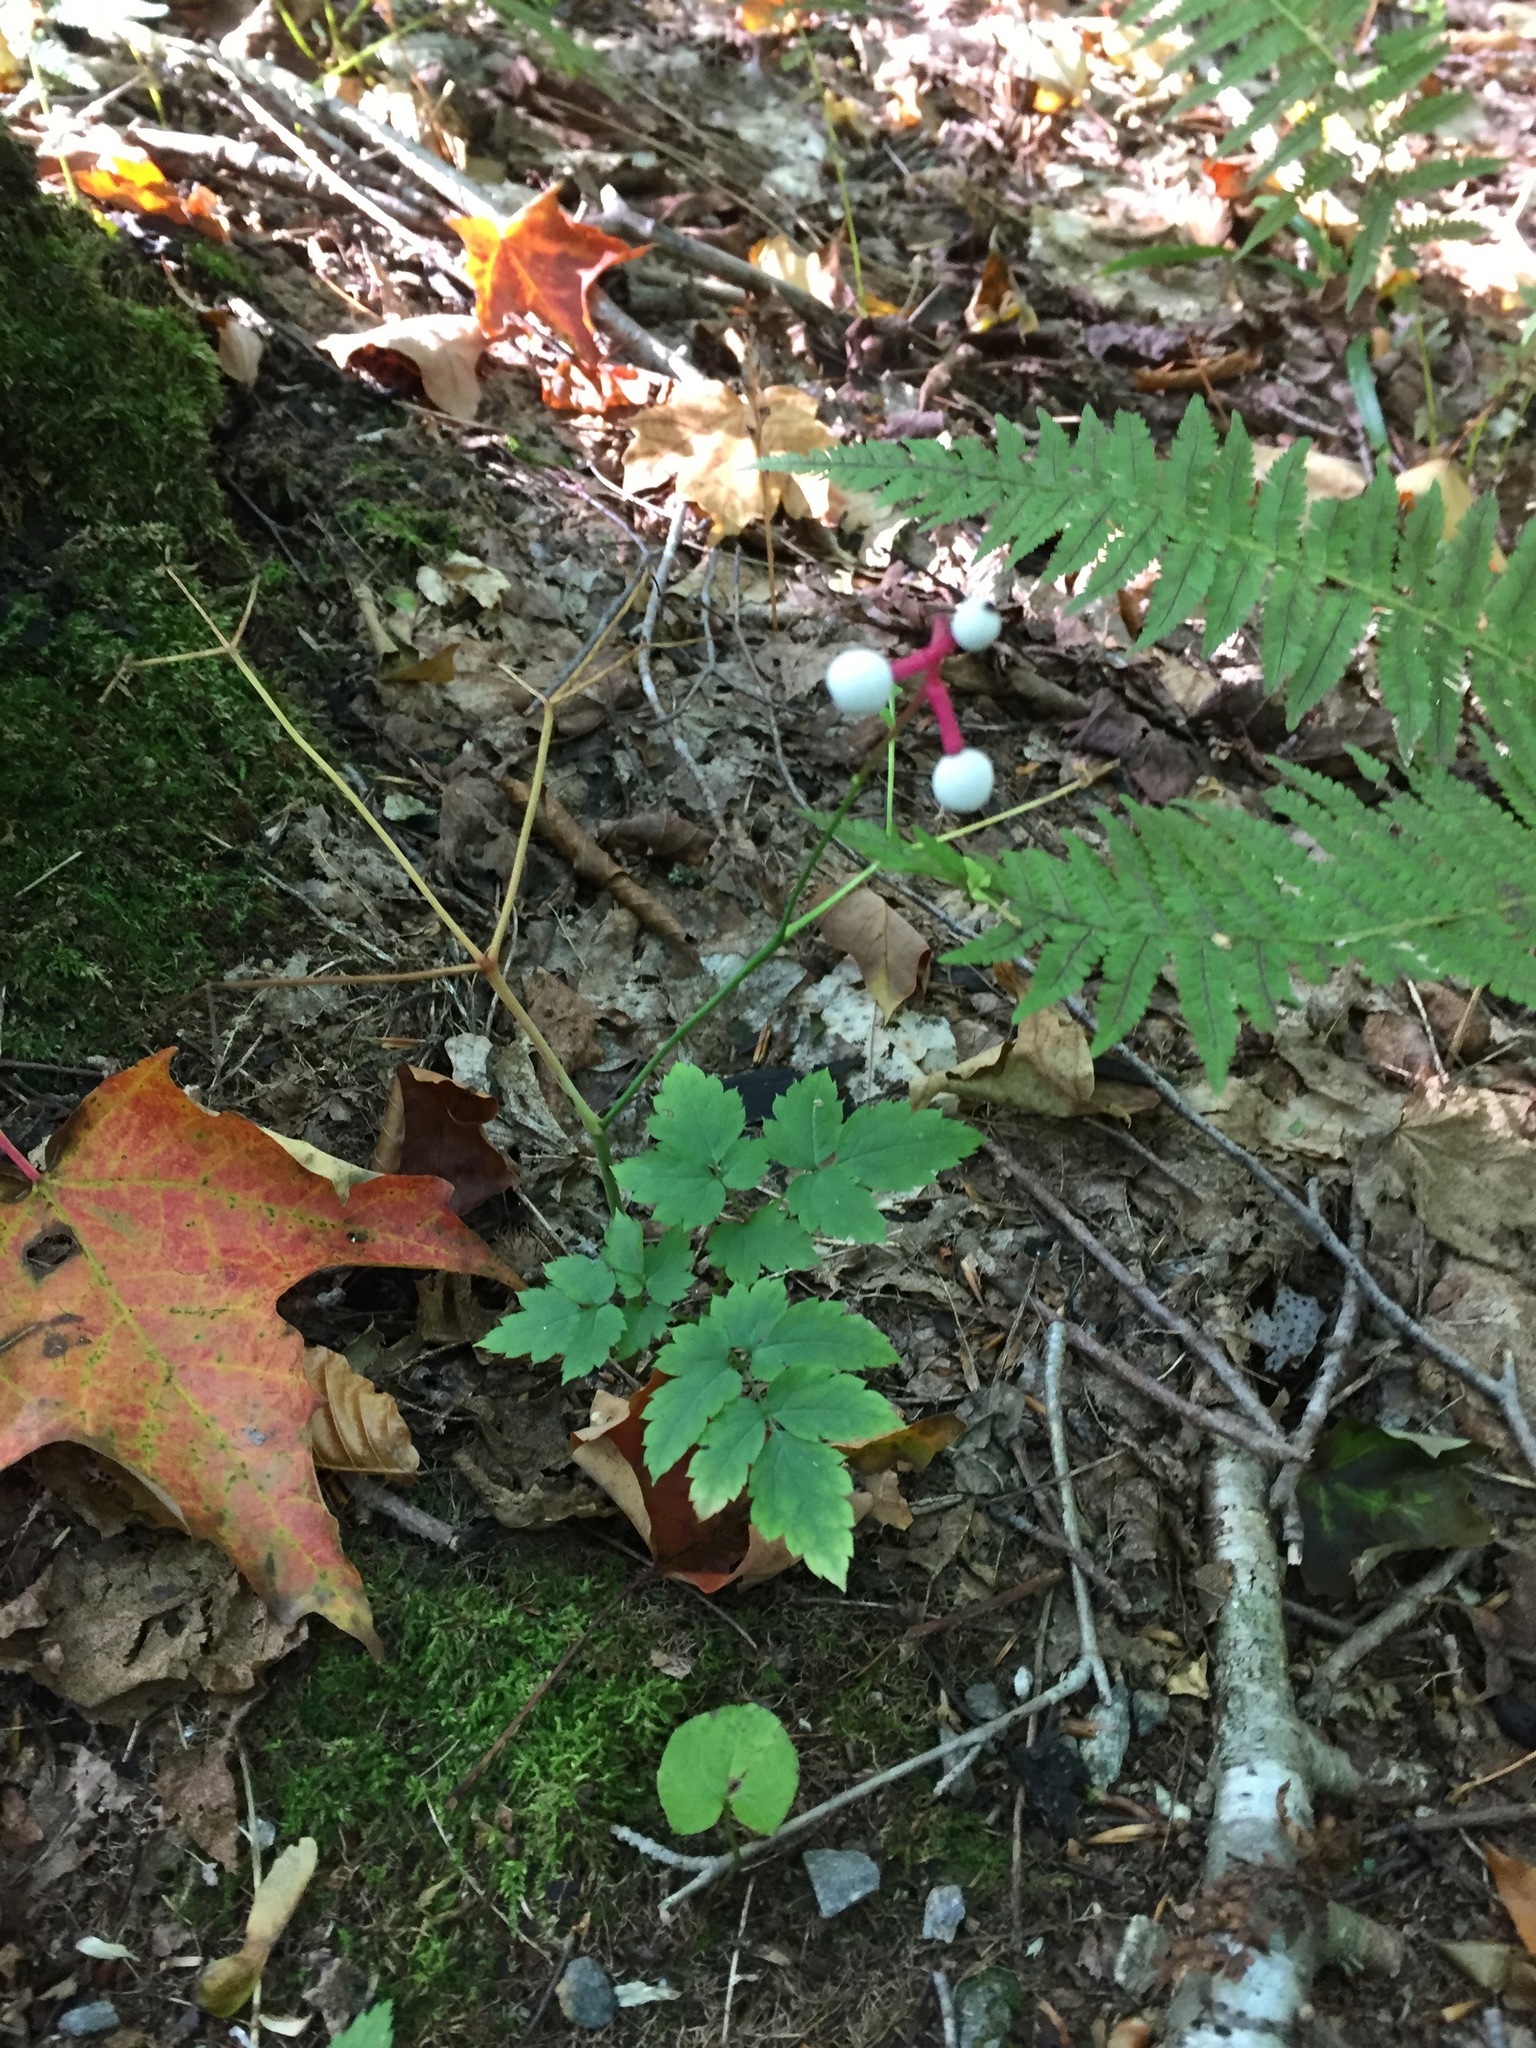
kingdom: Plantae
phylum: Tracheophyta
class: Magnoliopsida
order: Ranunculales
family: Ranunculaceae
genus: Actaea
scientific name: Actaea pachypoda
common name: Doll's-eyes
